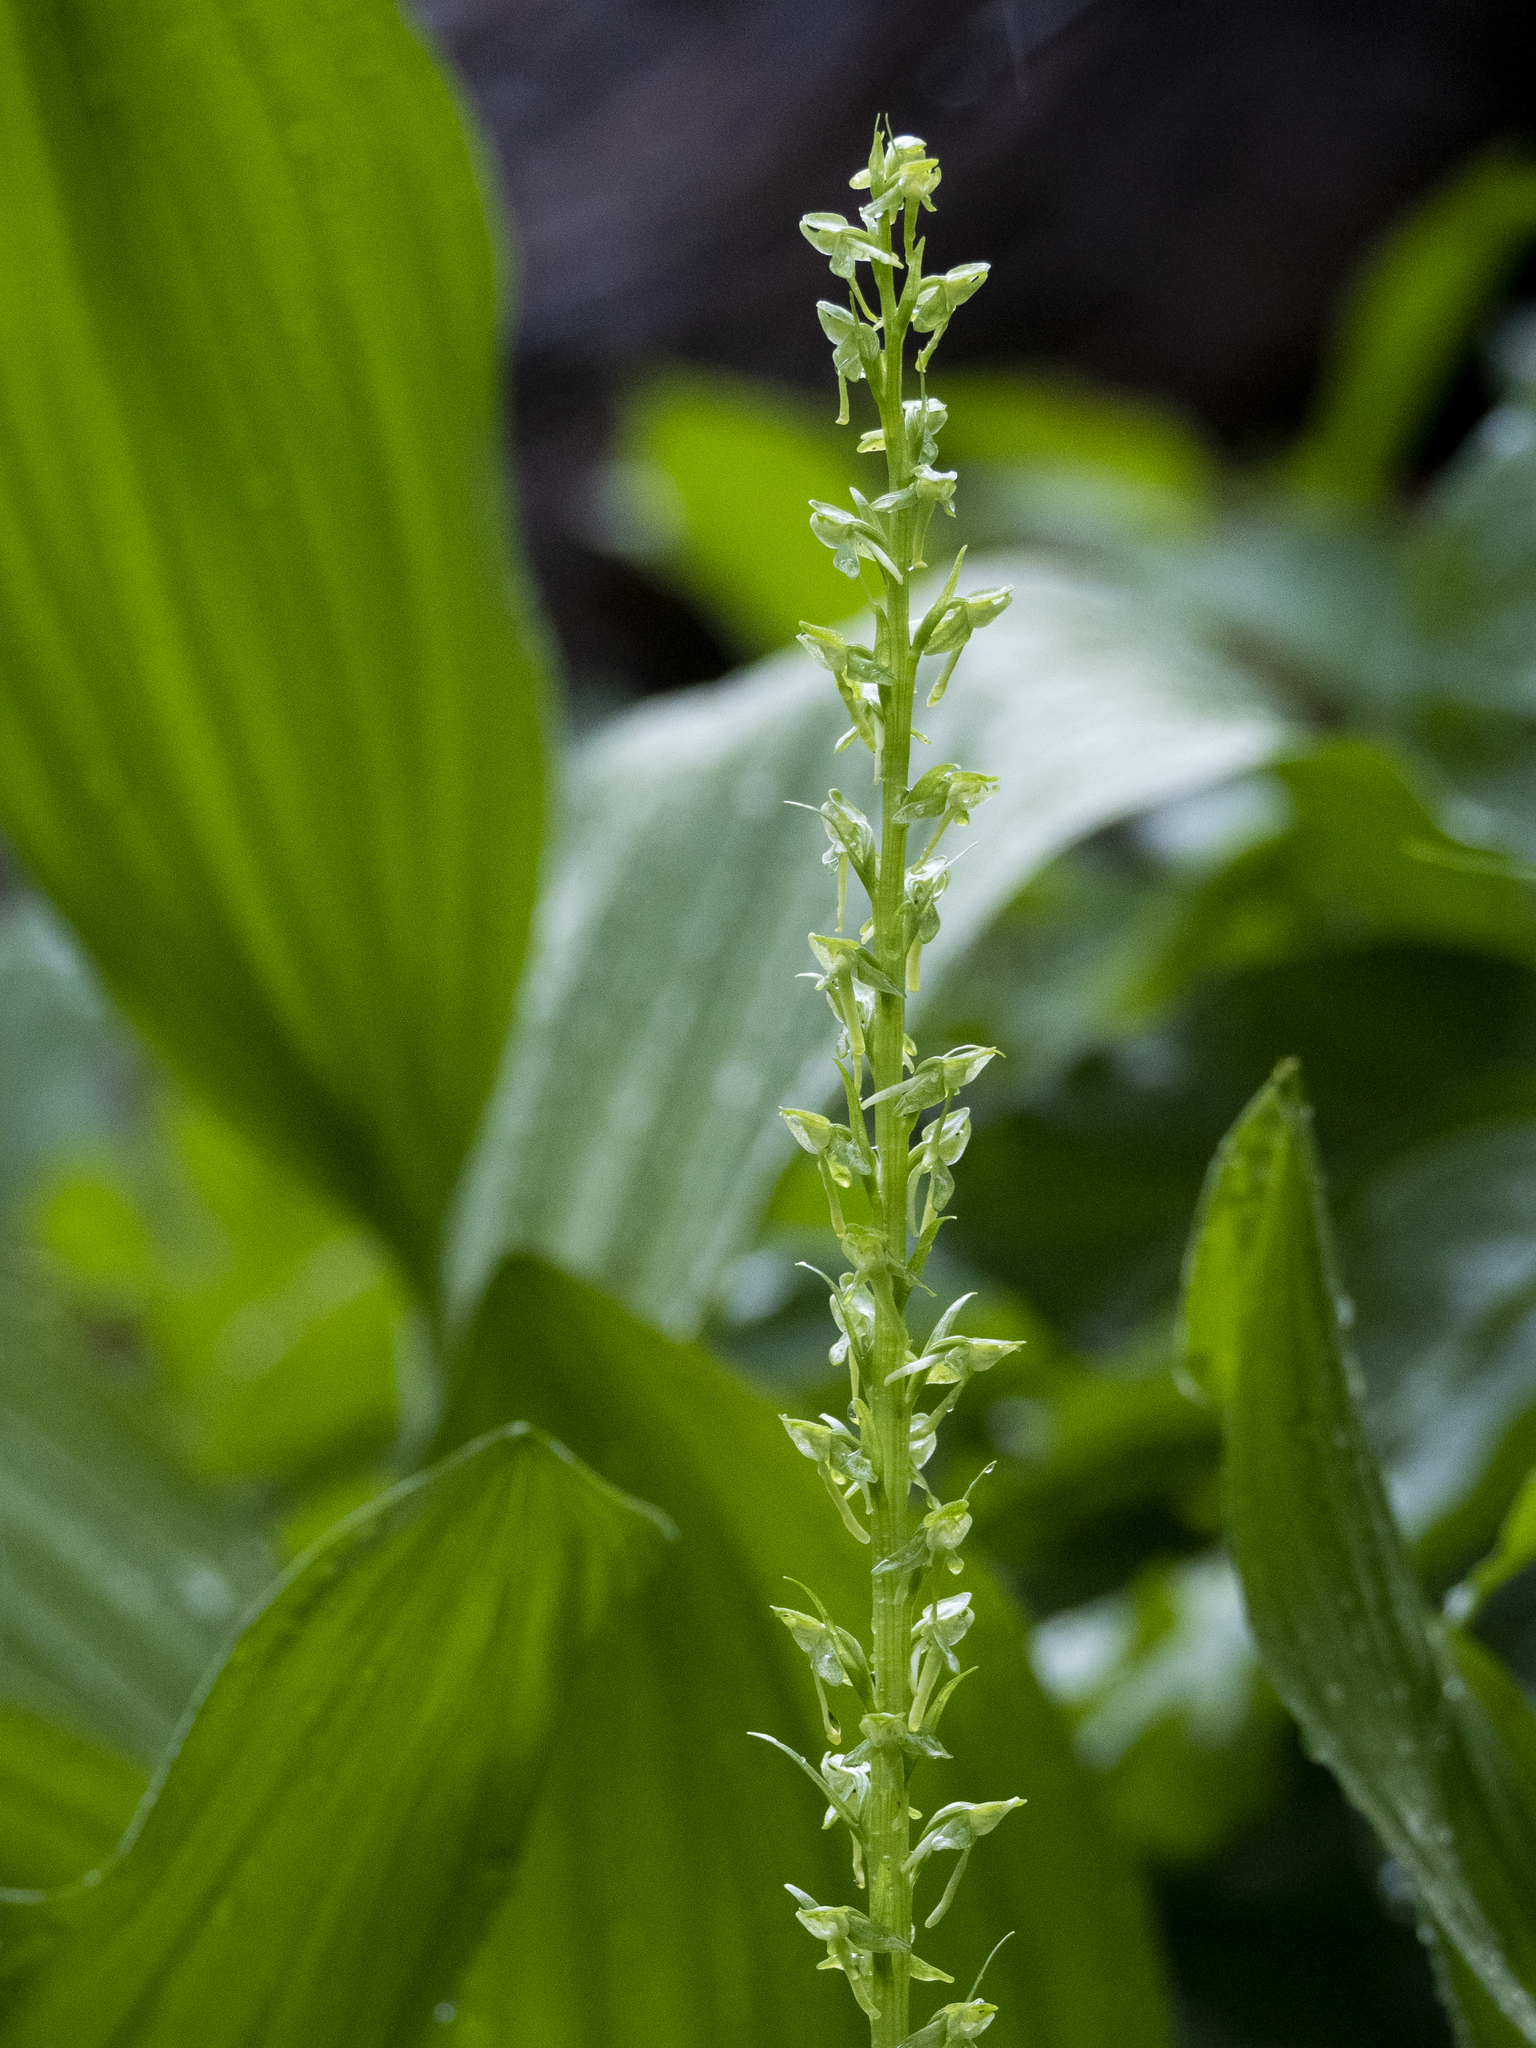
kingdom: Plantae
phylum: Tracheophyta
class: Liliopsida
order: Asparagales
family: Orchidaceae
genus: Platanthera
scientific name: Platanthera sparsiflora
